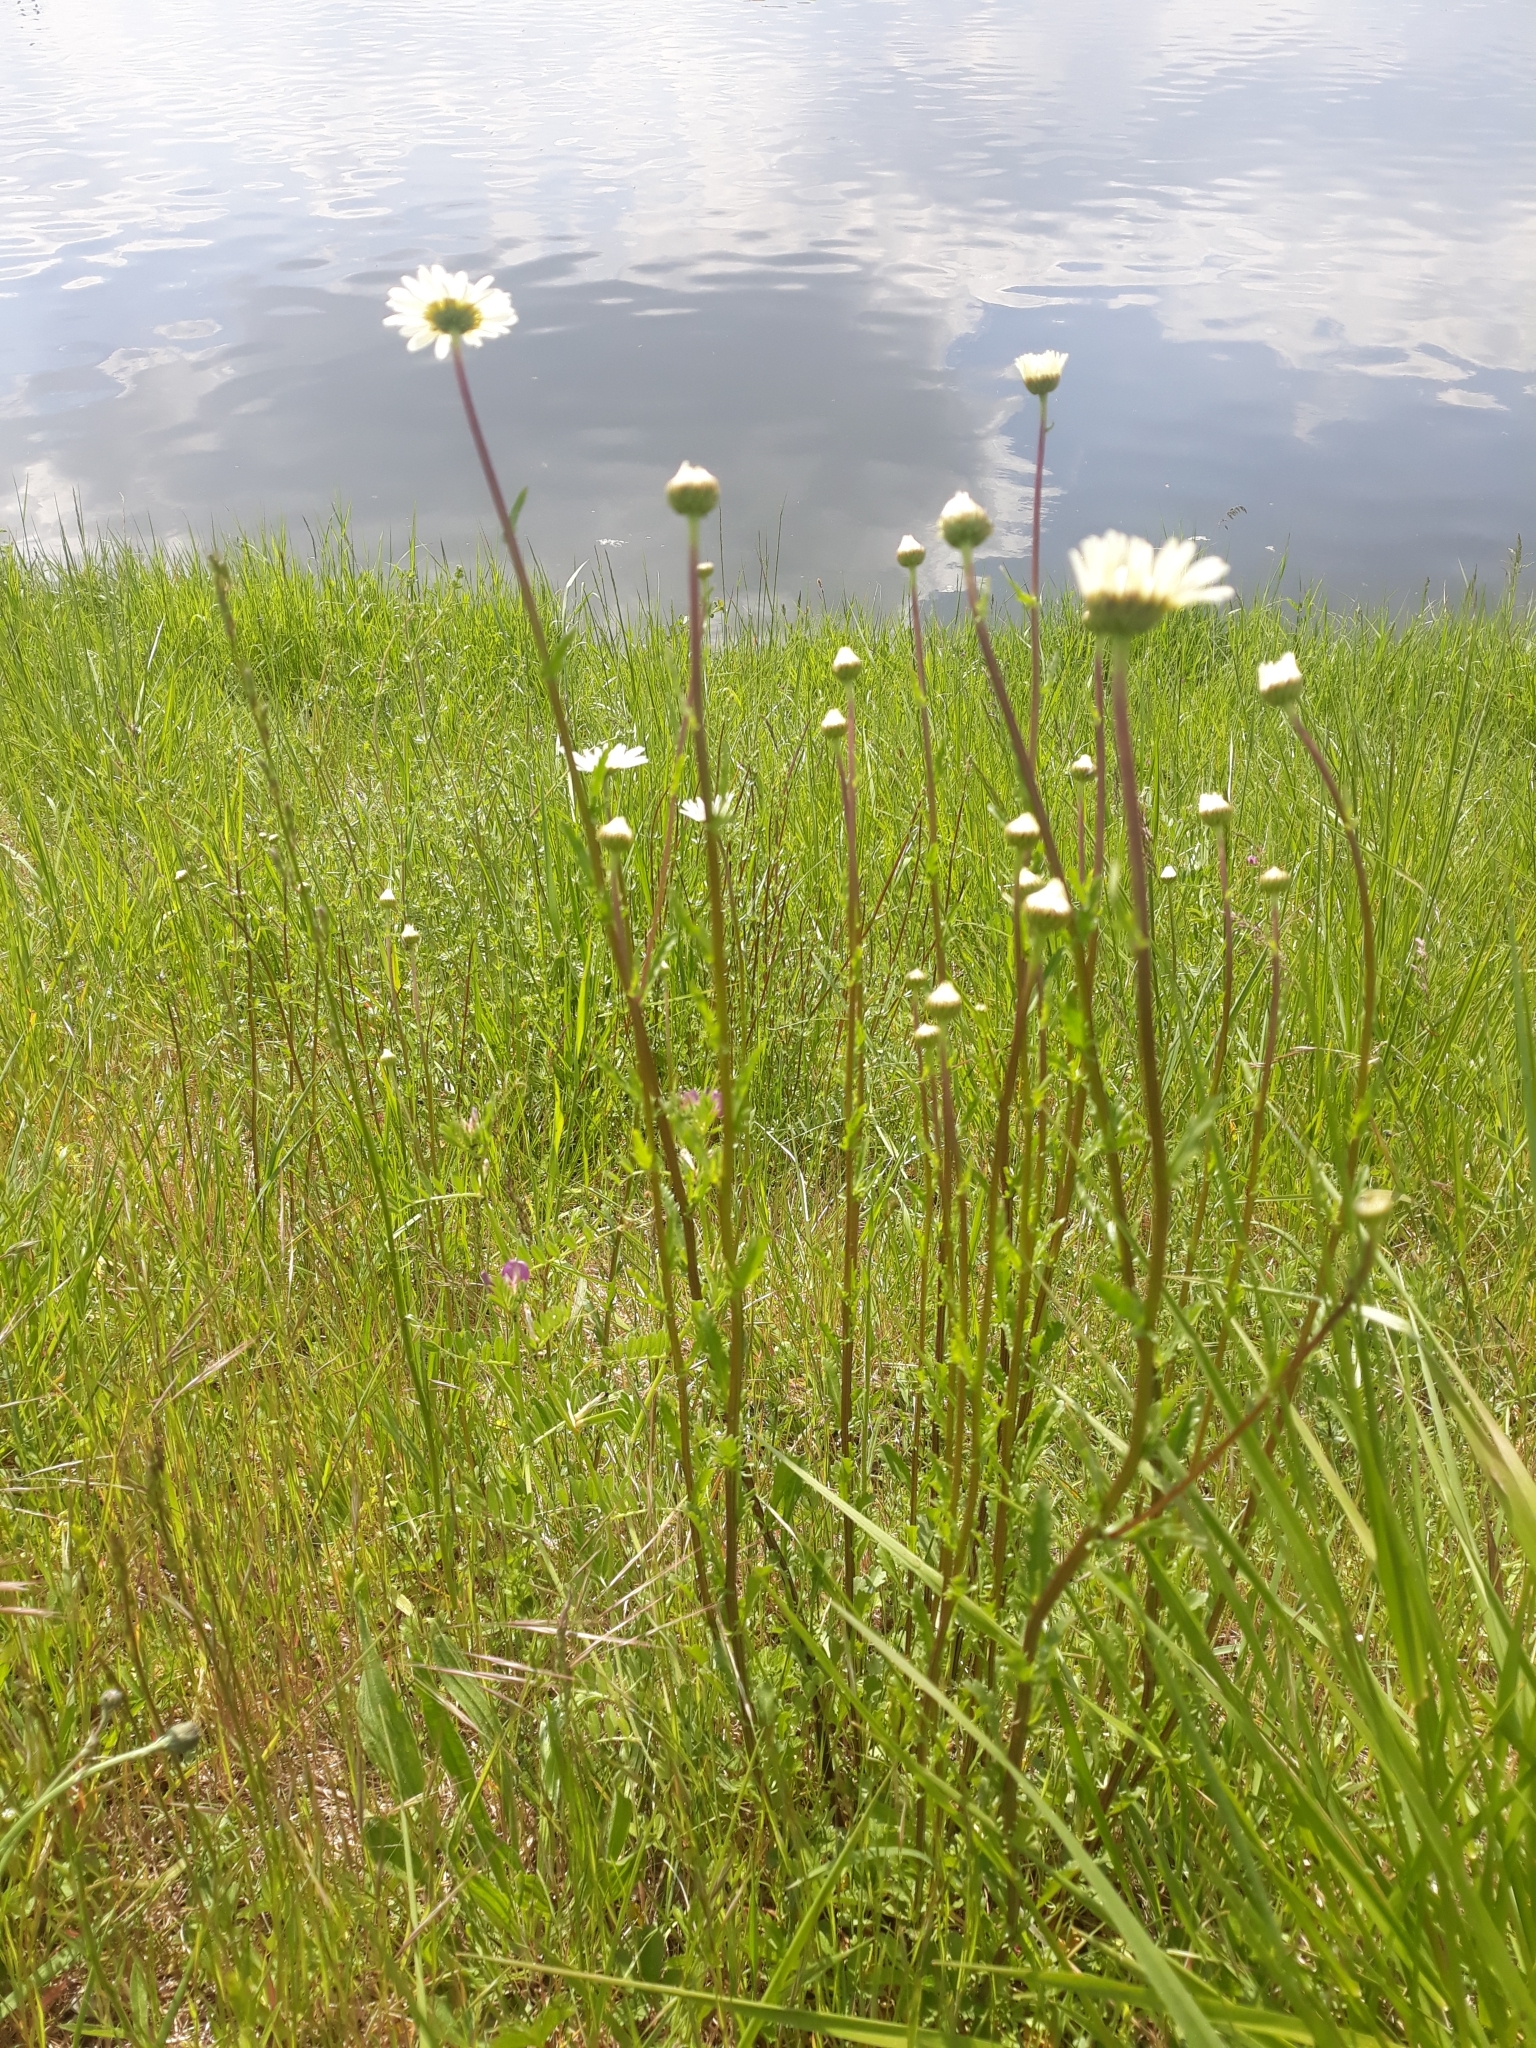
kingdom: Plantae
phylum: Tracheophyta
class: Magnoliopsida
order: Asterales
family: Asteraceae
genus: Leucanthemum
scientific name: Leucanthemum ircutianum
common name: Daisy
